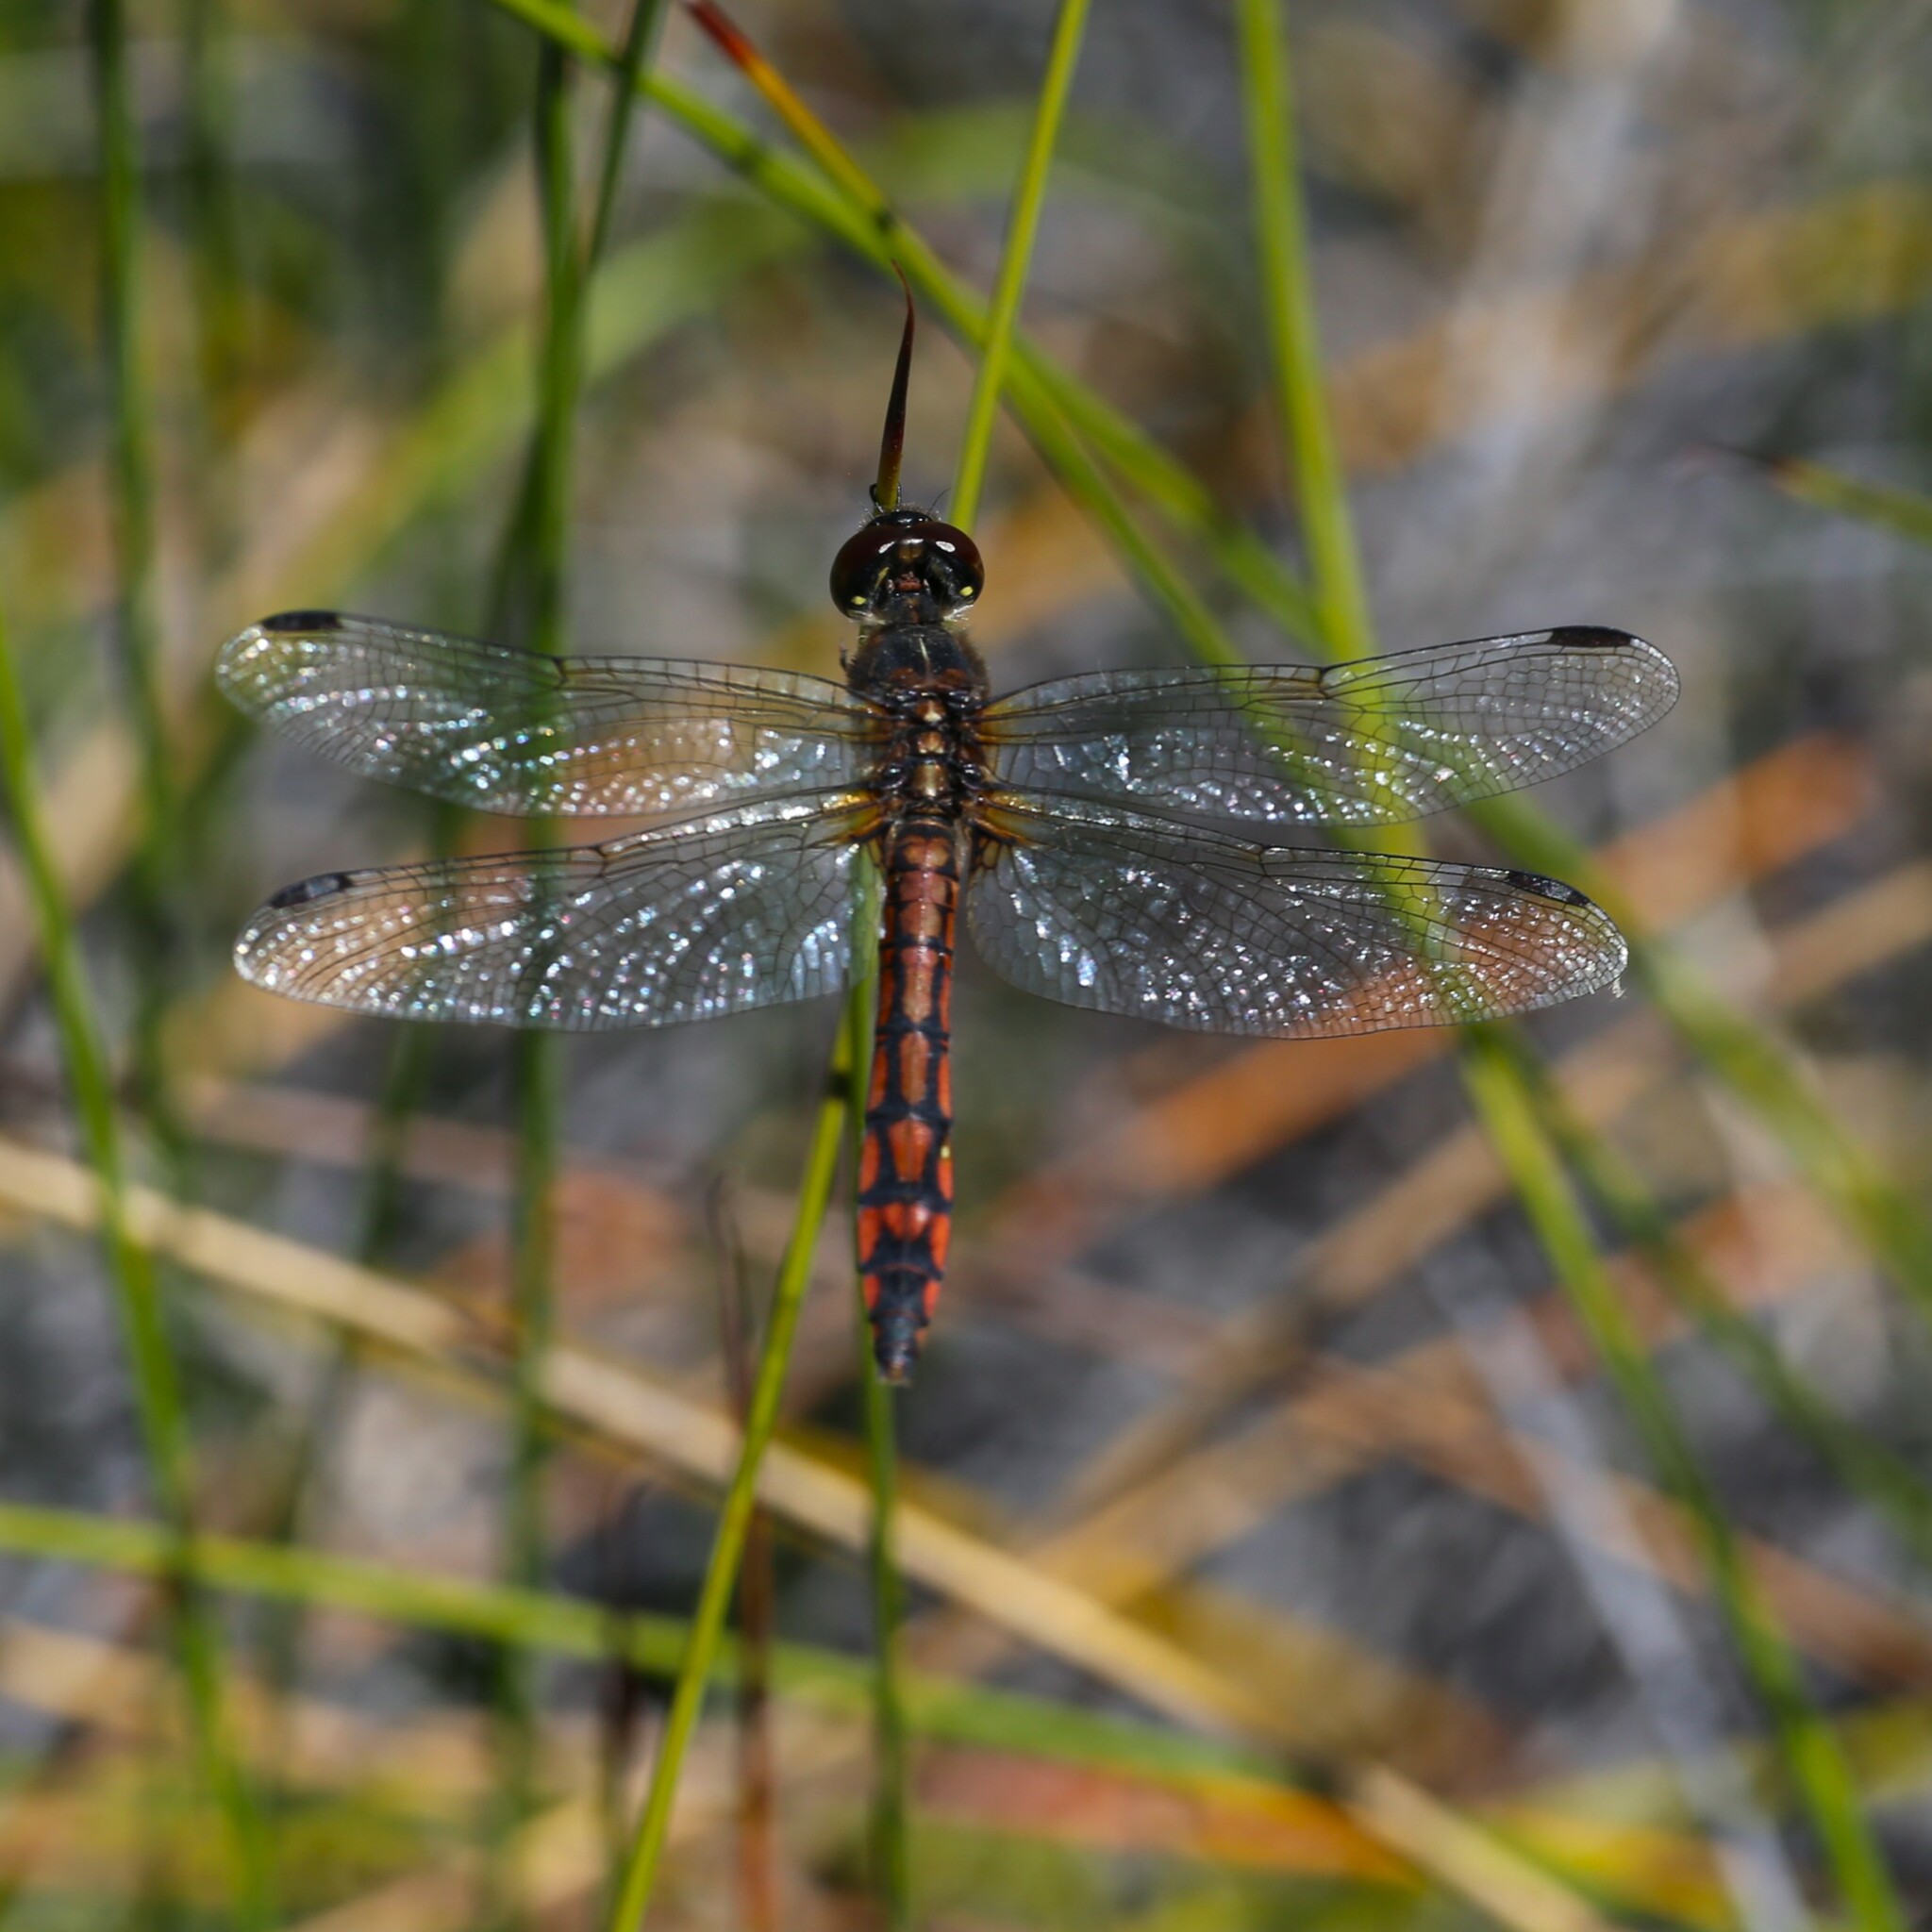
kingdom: Animalia
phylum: Arthropoda
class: Insecta
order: Odonata
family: Libellulidae
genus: Austrothemis
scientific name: Austrothemis nigrescens
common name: Swamp flat-tail
